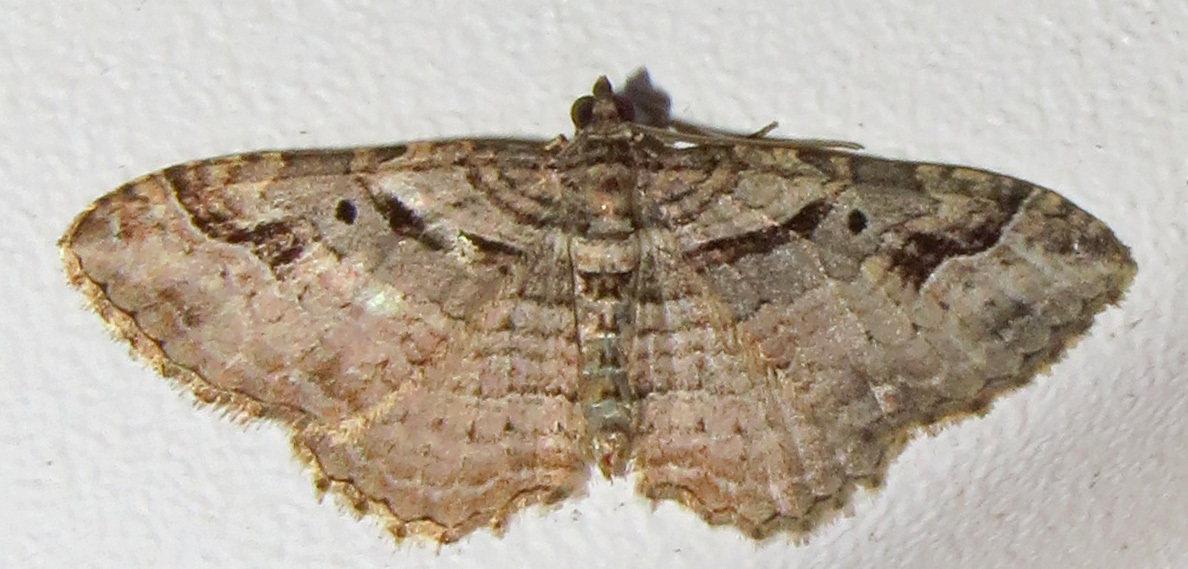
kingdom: Animalia
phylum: Arthropoda
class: Insecta
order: Lepidoptera
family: Geometridae
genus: Costaconvexa
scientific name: Costaconvexa centrostrigaria
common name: Bent-line carpet
